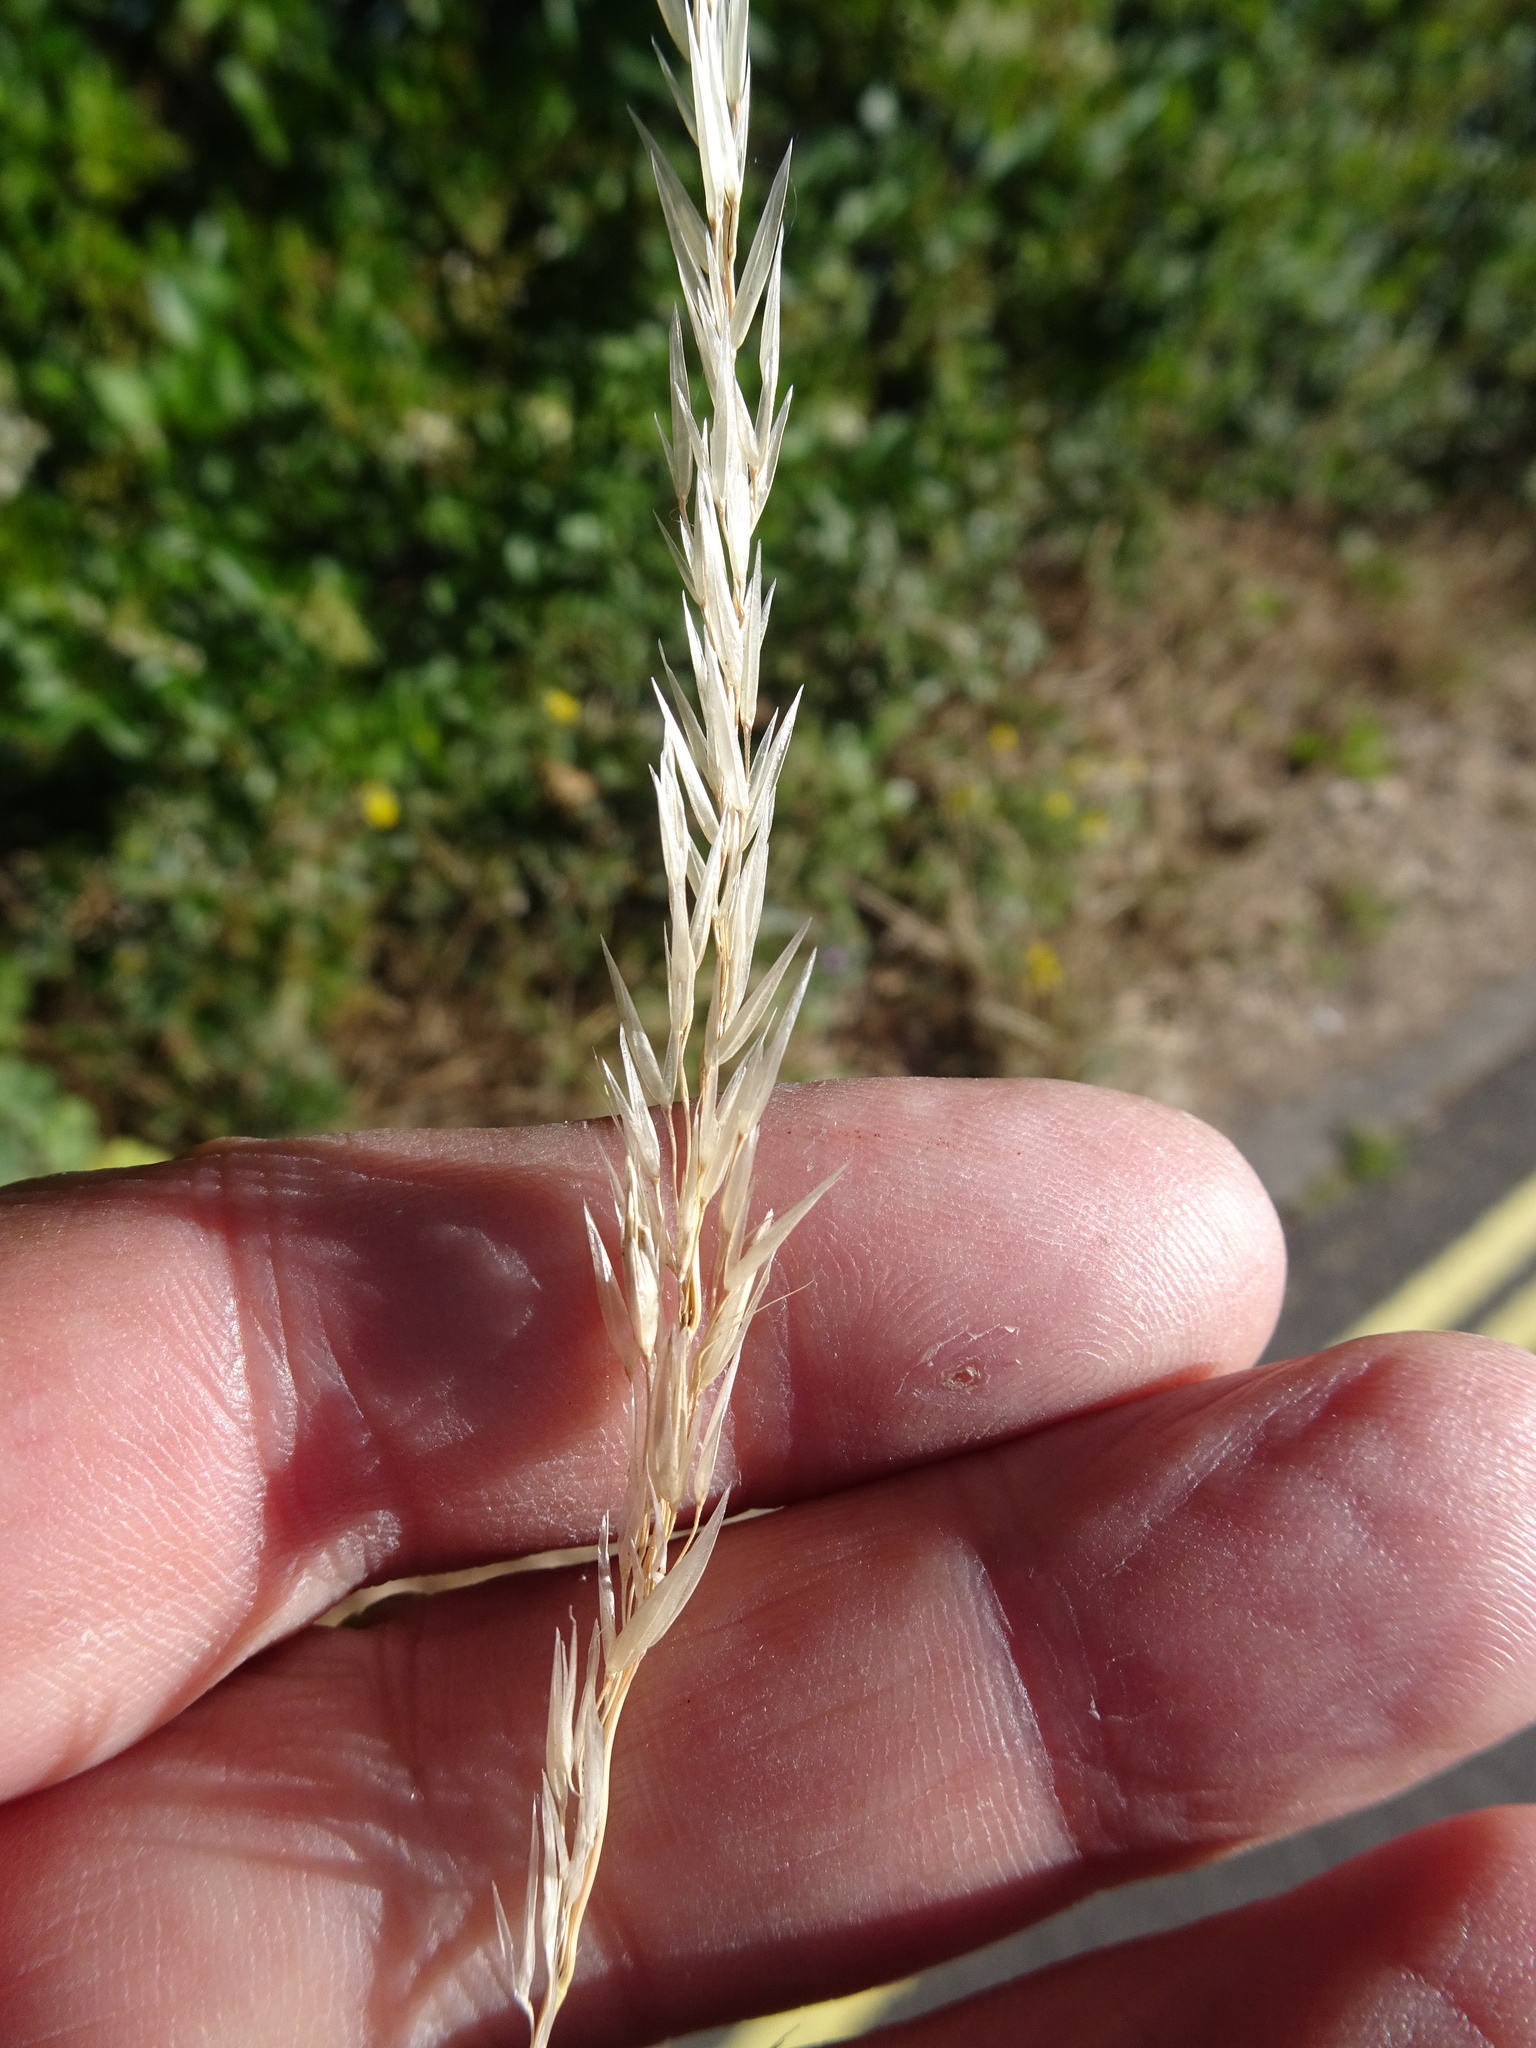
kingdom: Plantae
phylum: Tracheophyta
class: Liliopsida
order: Poales
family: Poaceae
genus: Arrhenatherum
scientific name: Arrhenatherum elatius
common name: Tall oatgrass
